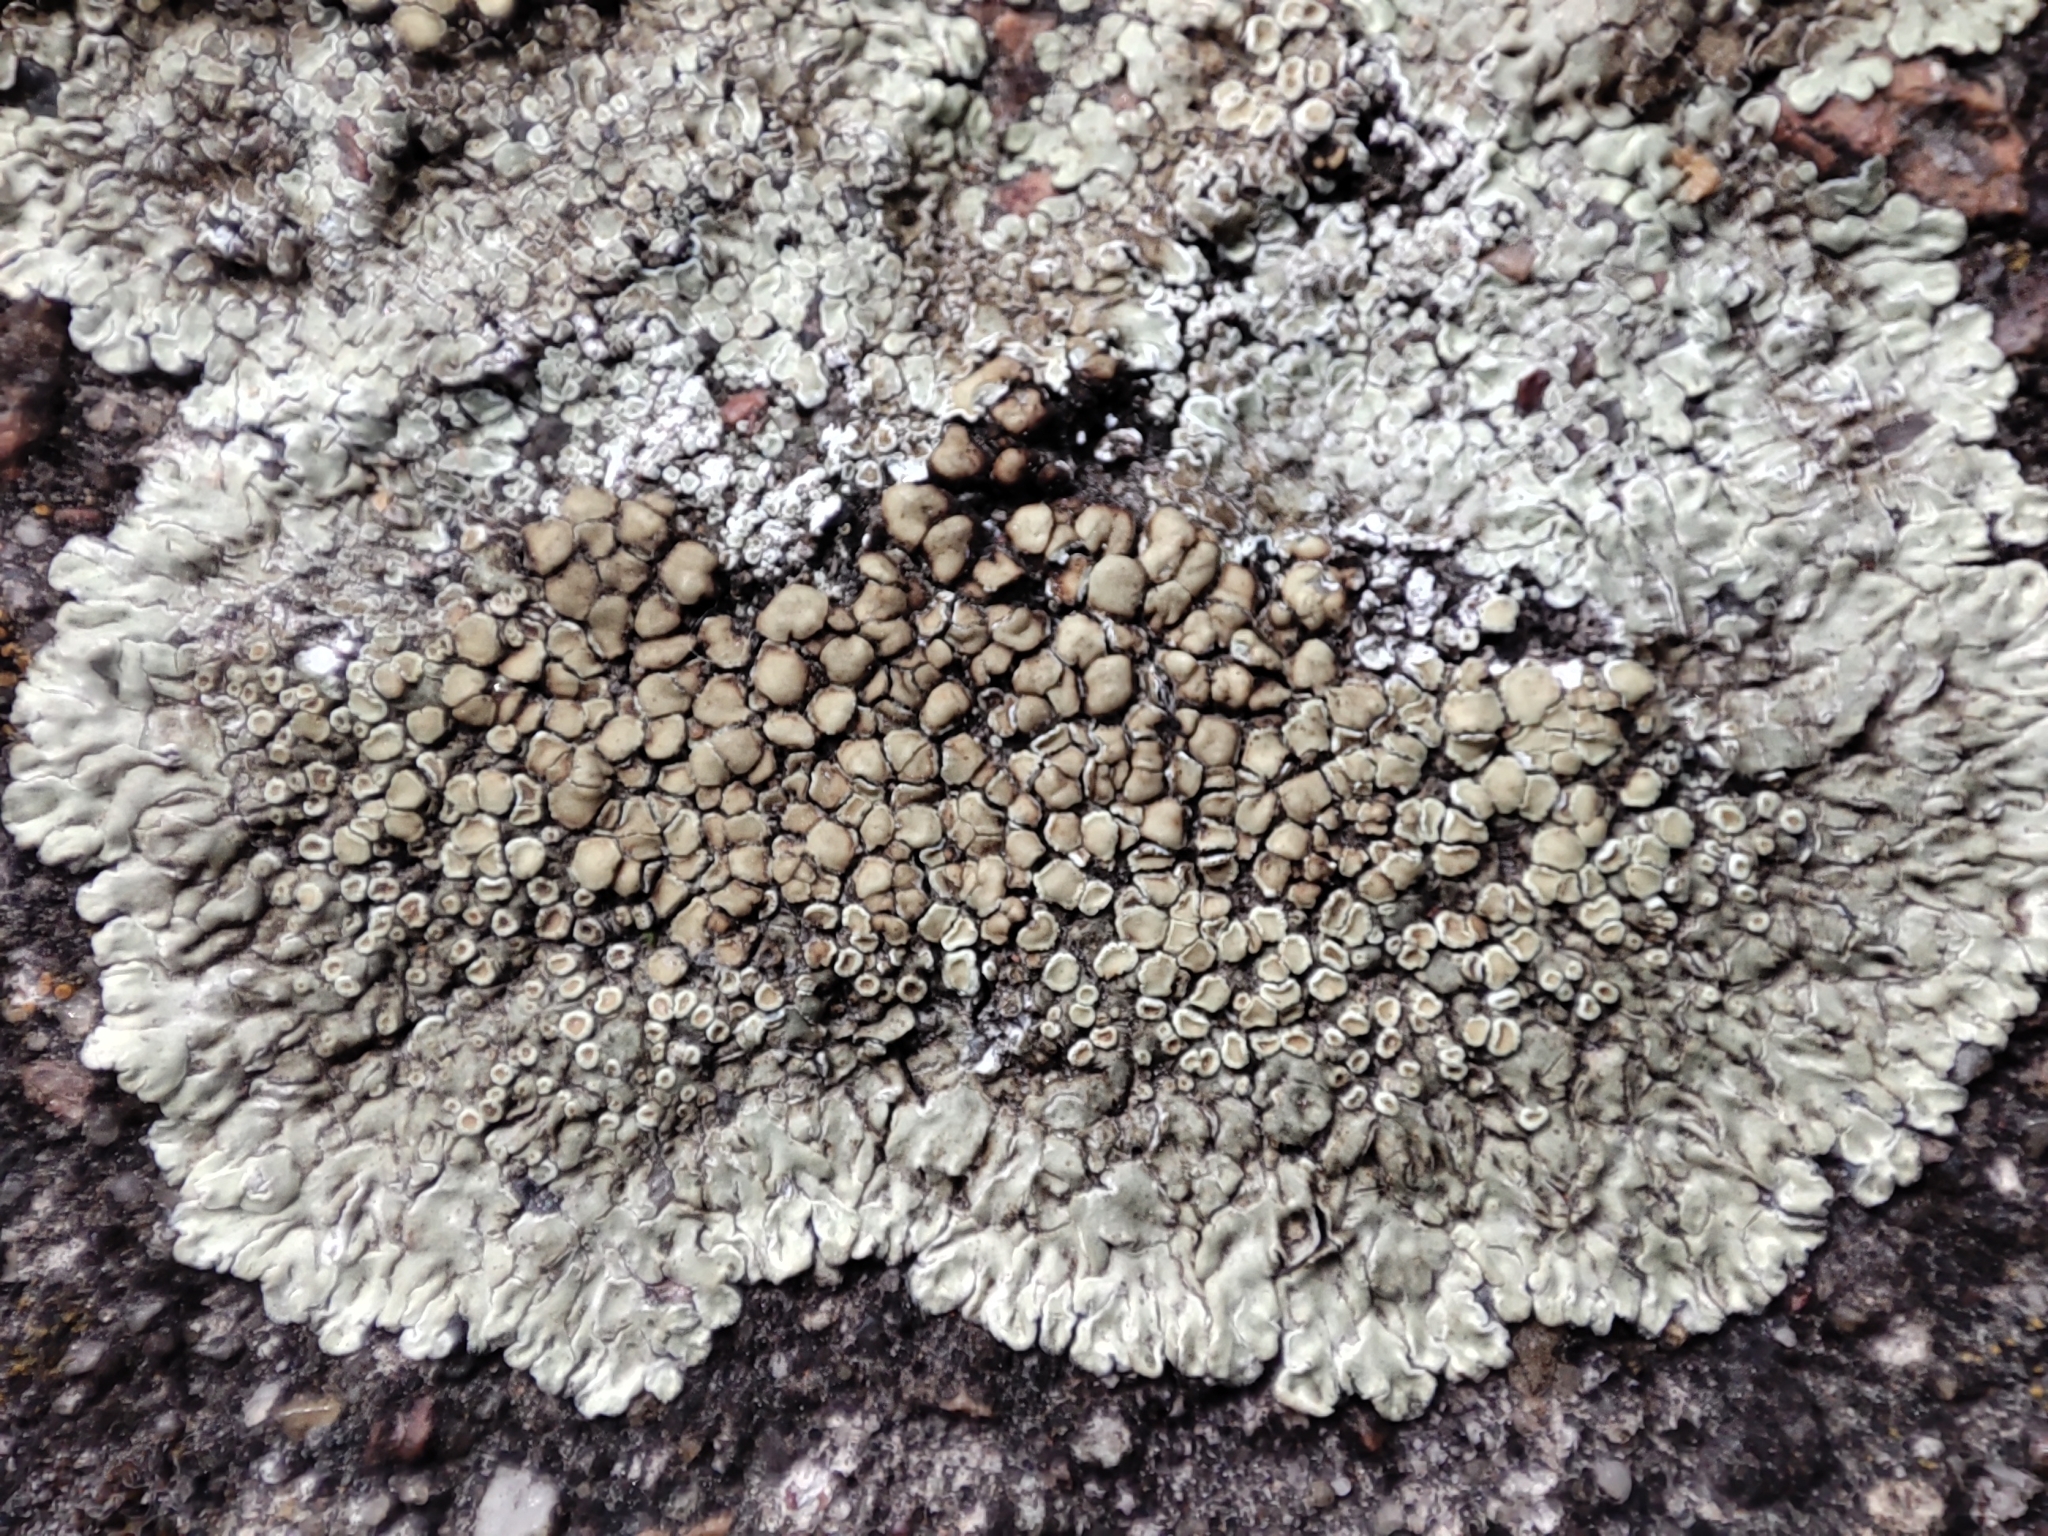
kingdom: Fungi
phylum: Ascomycota
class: Lecanoromycetes
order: Lecanorales
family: Lecanoraceae
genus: Protoparmeliopsis
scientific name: Protoparmeliopsis muralis
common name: Stonewall rim lichen
